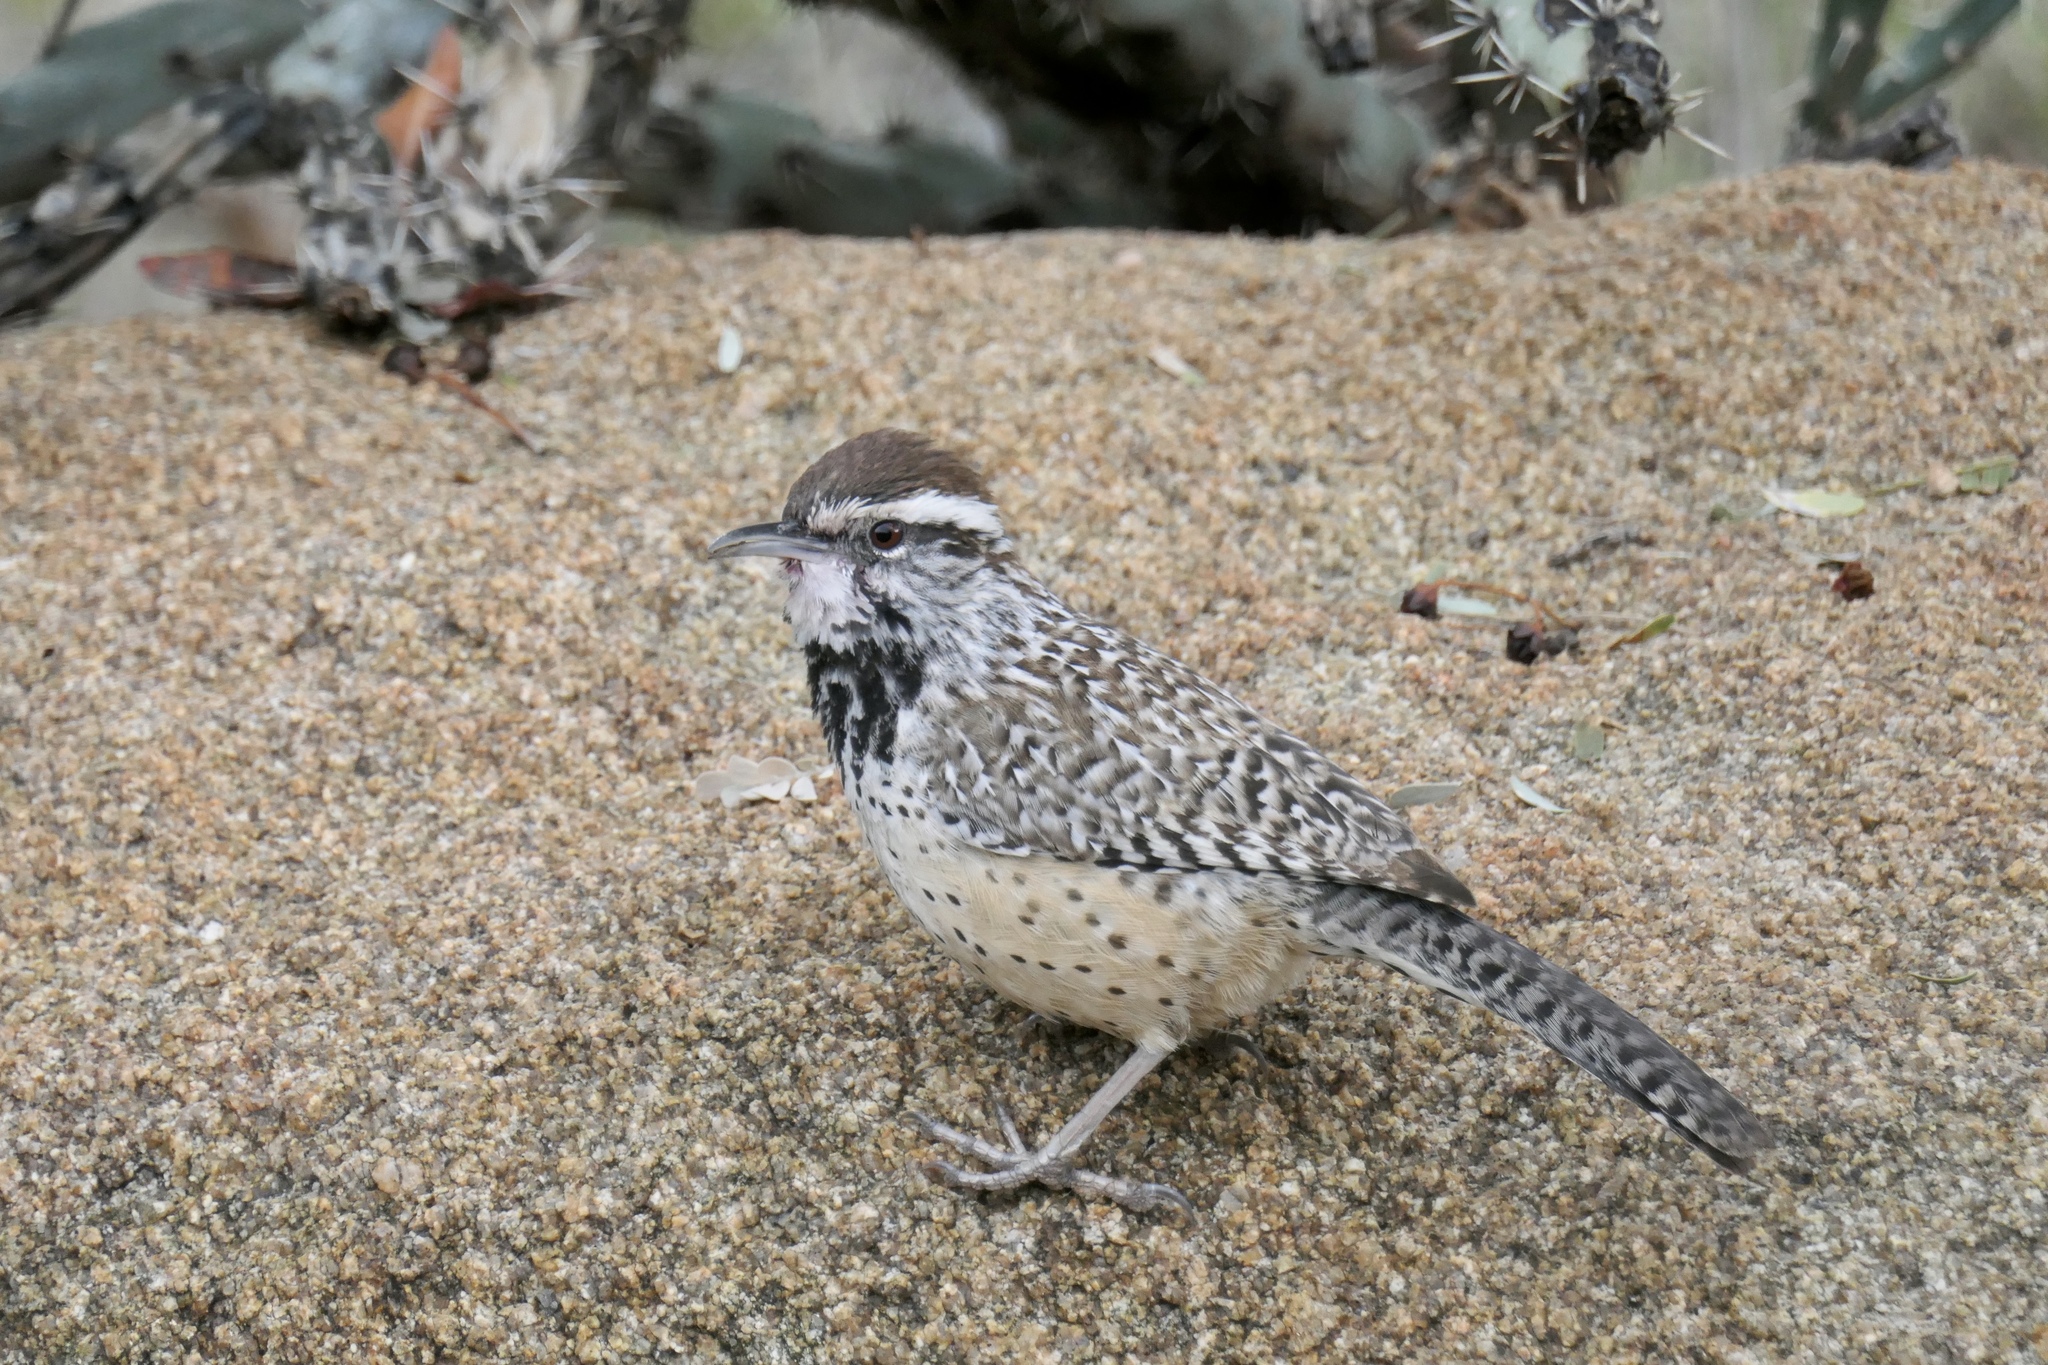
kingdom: Animalia
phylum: Chordata
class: Aves
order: Passeriformes
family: Troglodytidae
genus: Campylorhynchus
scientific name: Campylorhynchus brunneicapillus
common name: Cactus wren
